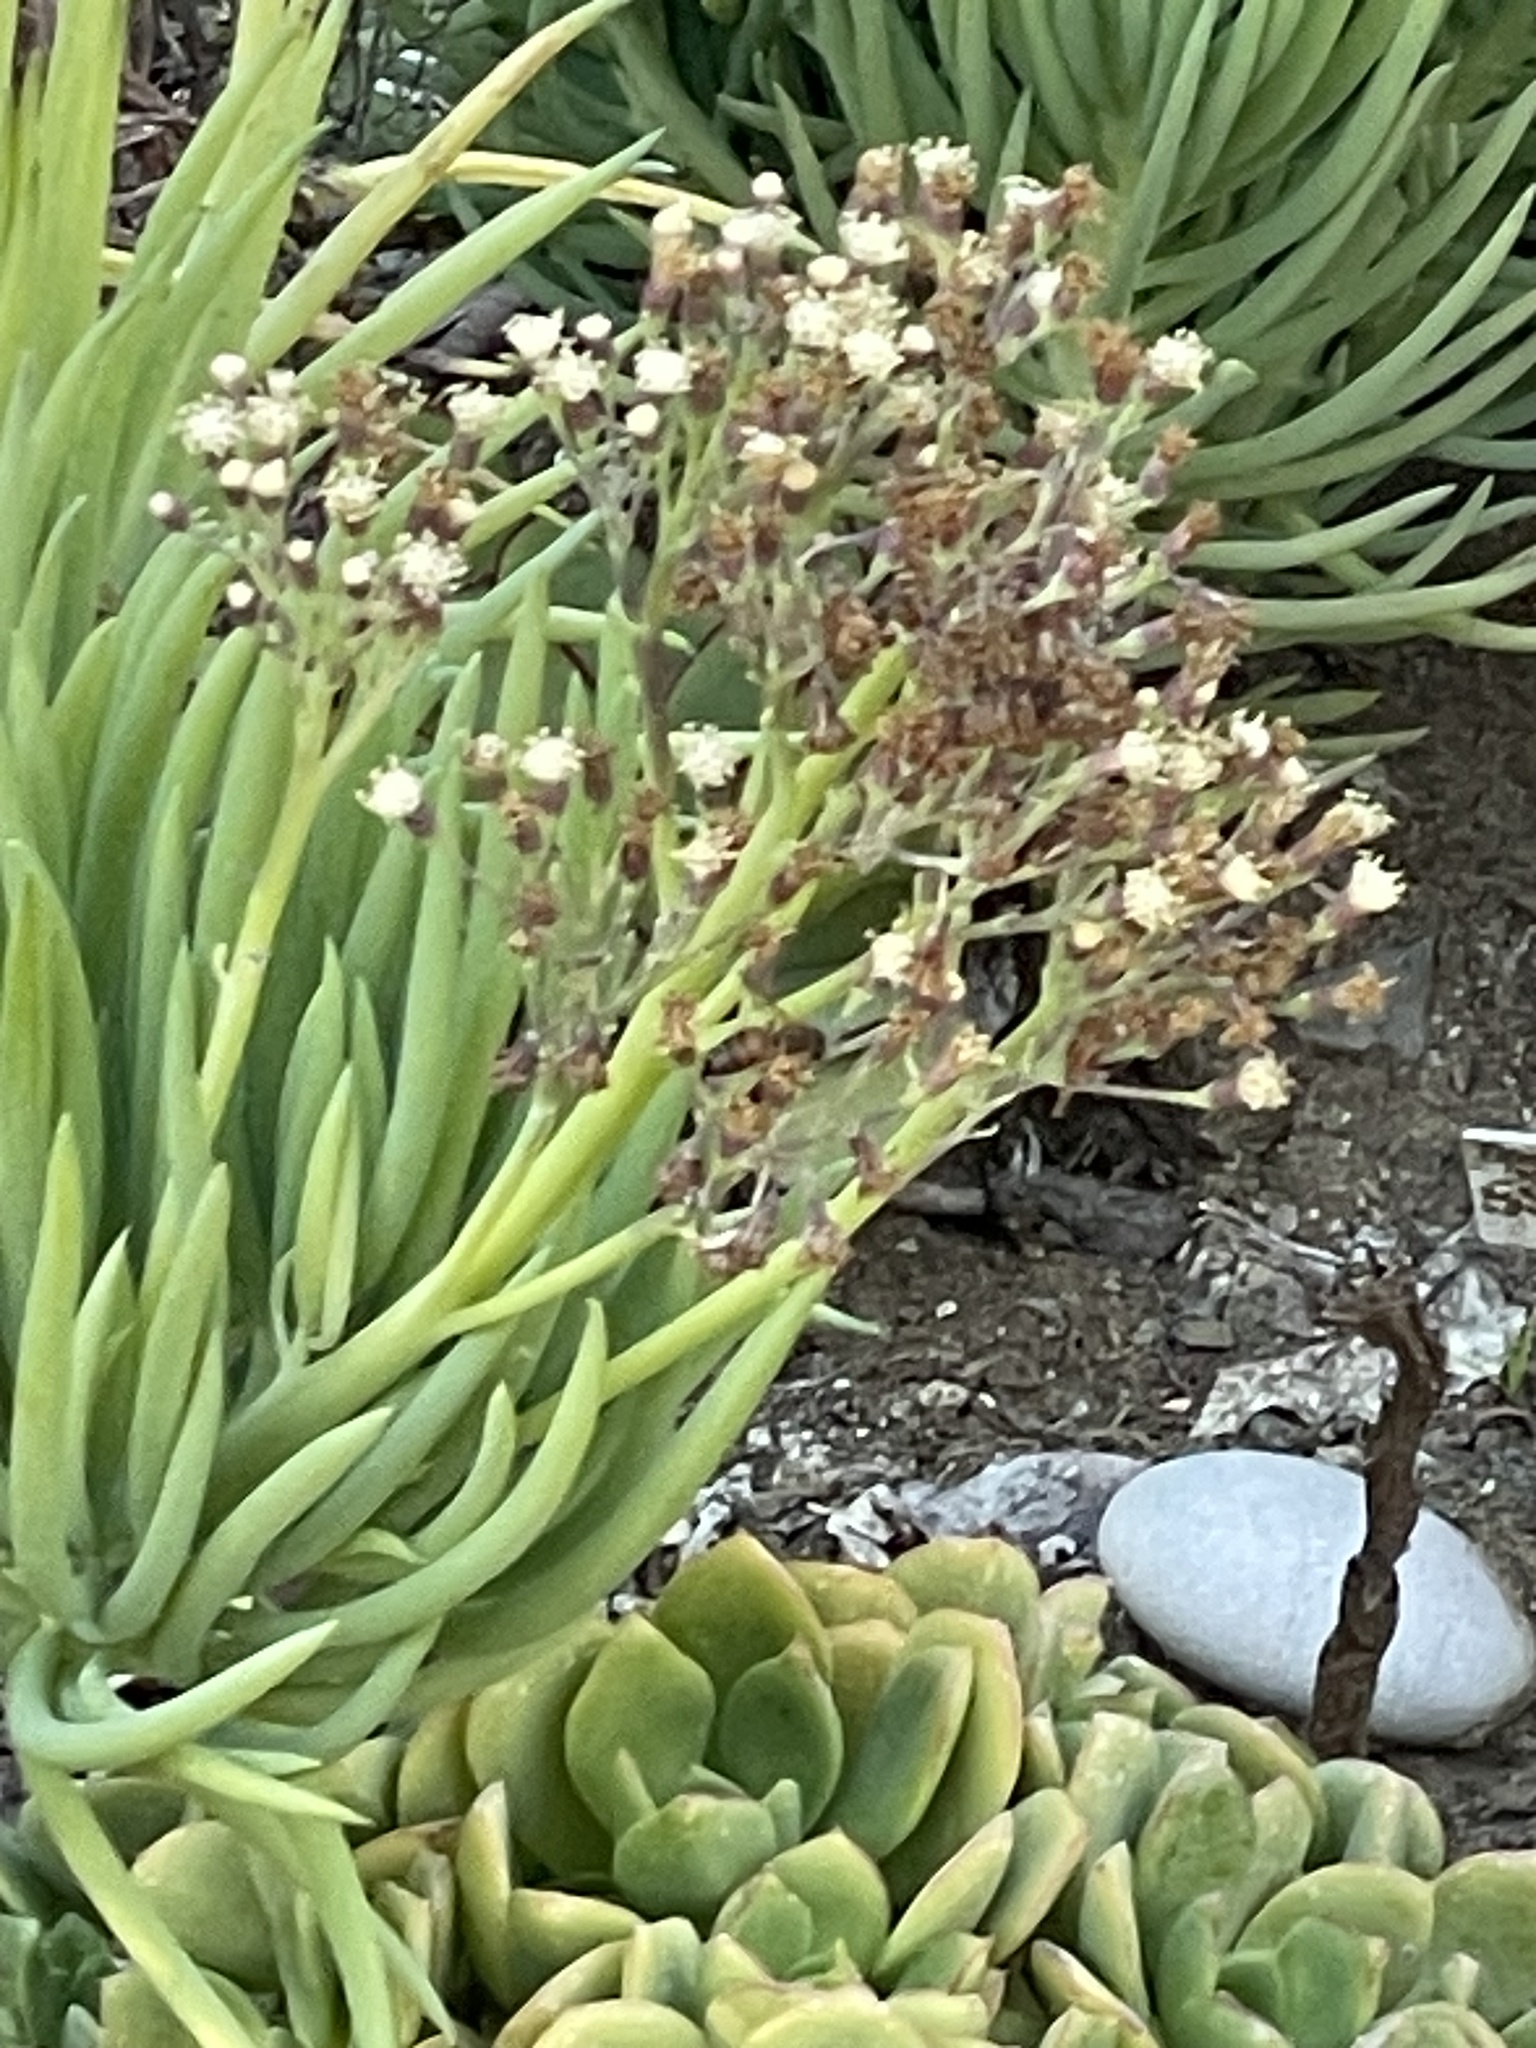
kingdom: Animalia
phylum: Arthropoda
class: Insecta
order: Hymenoptera
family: Apidae
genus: Apis
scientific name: Apis mellifera
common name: Honey bee
